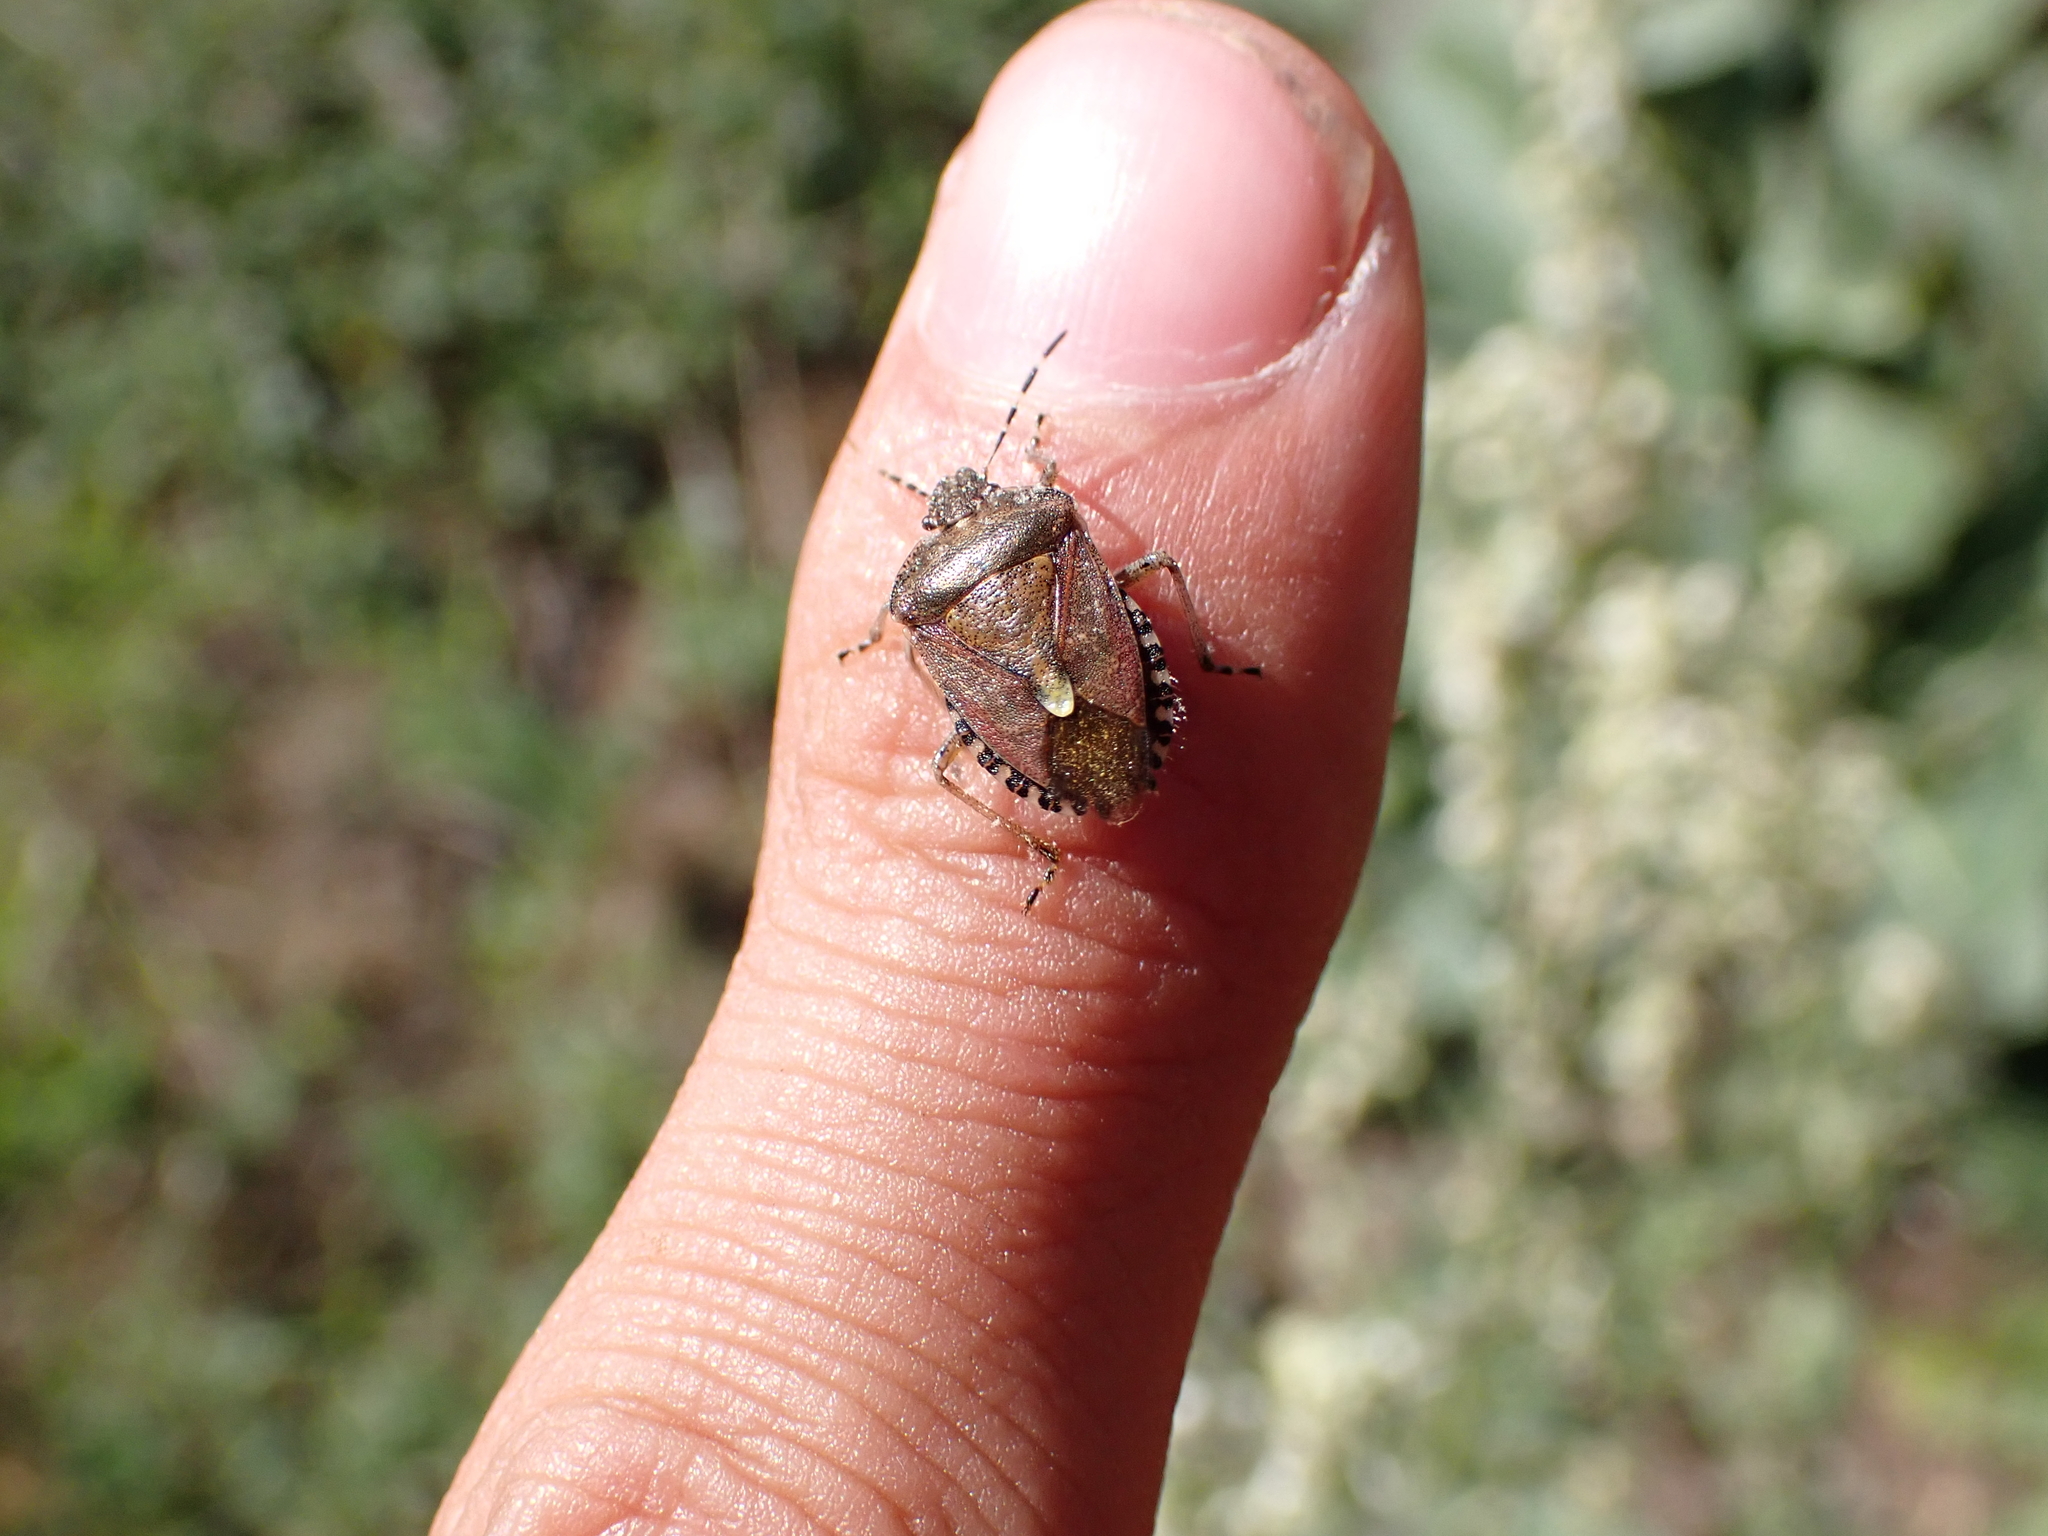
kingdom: Animalia
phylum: Arthropoda
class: Insecta
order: Hemiptera
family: Pentatomidae
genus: Dolycoris
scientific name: Dolycoris baccarum
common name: Sloe bug
